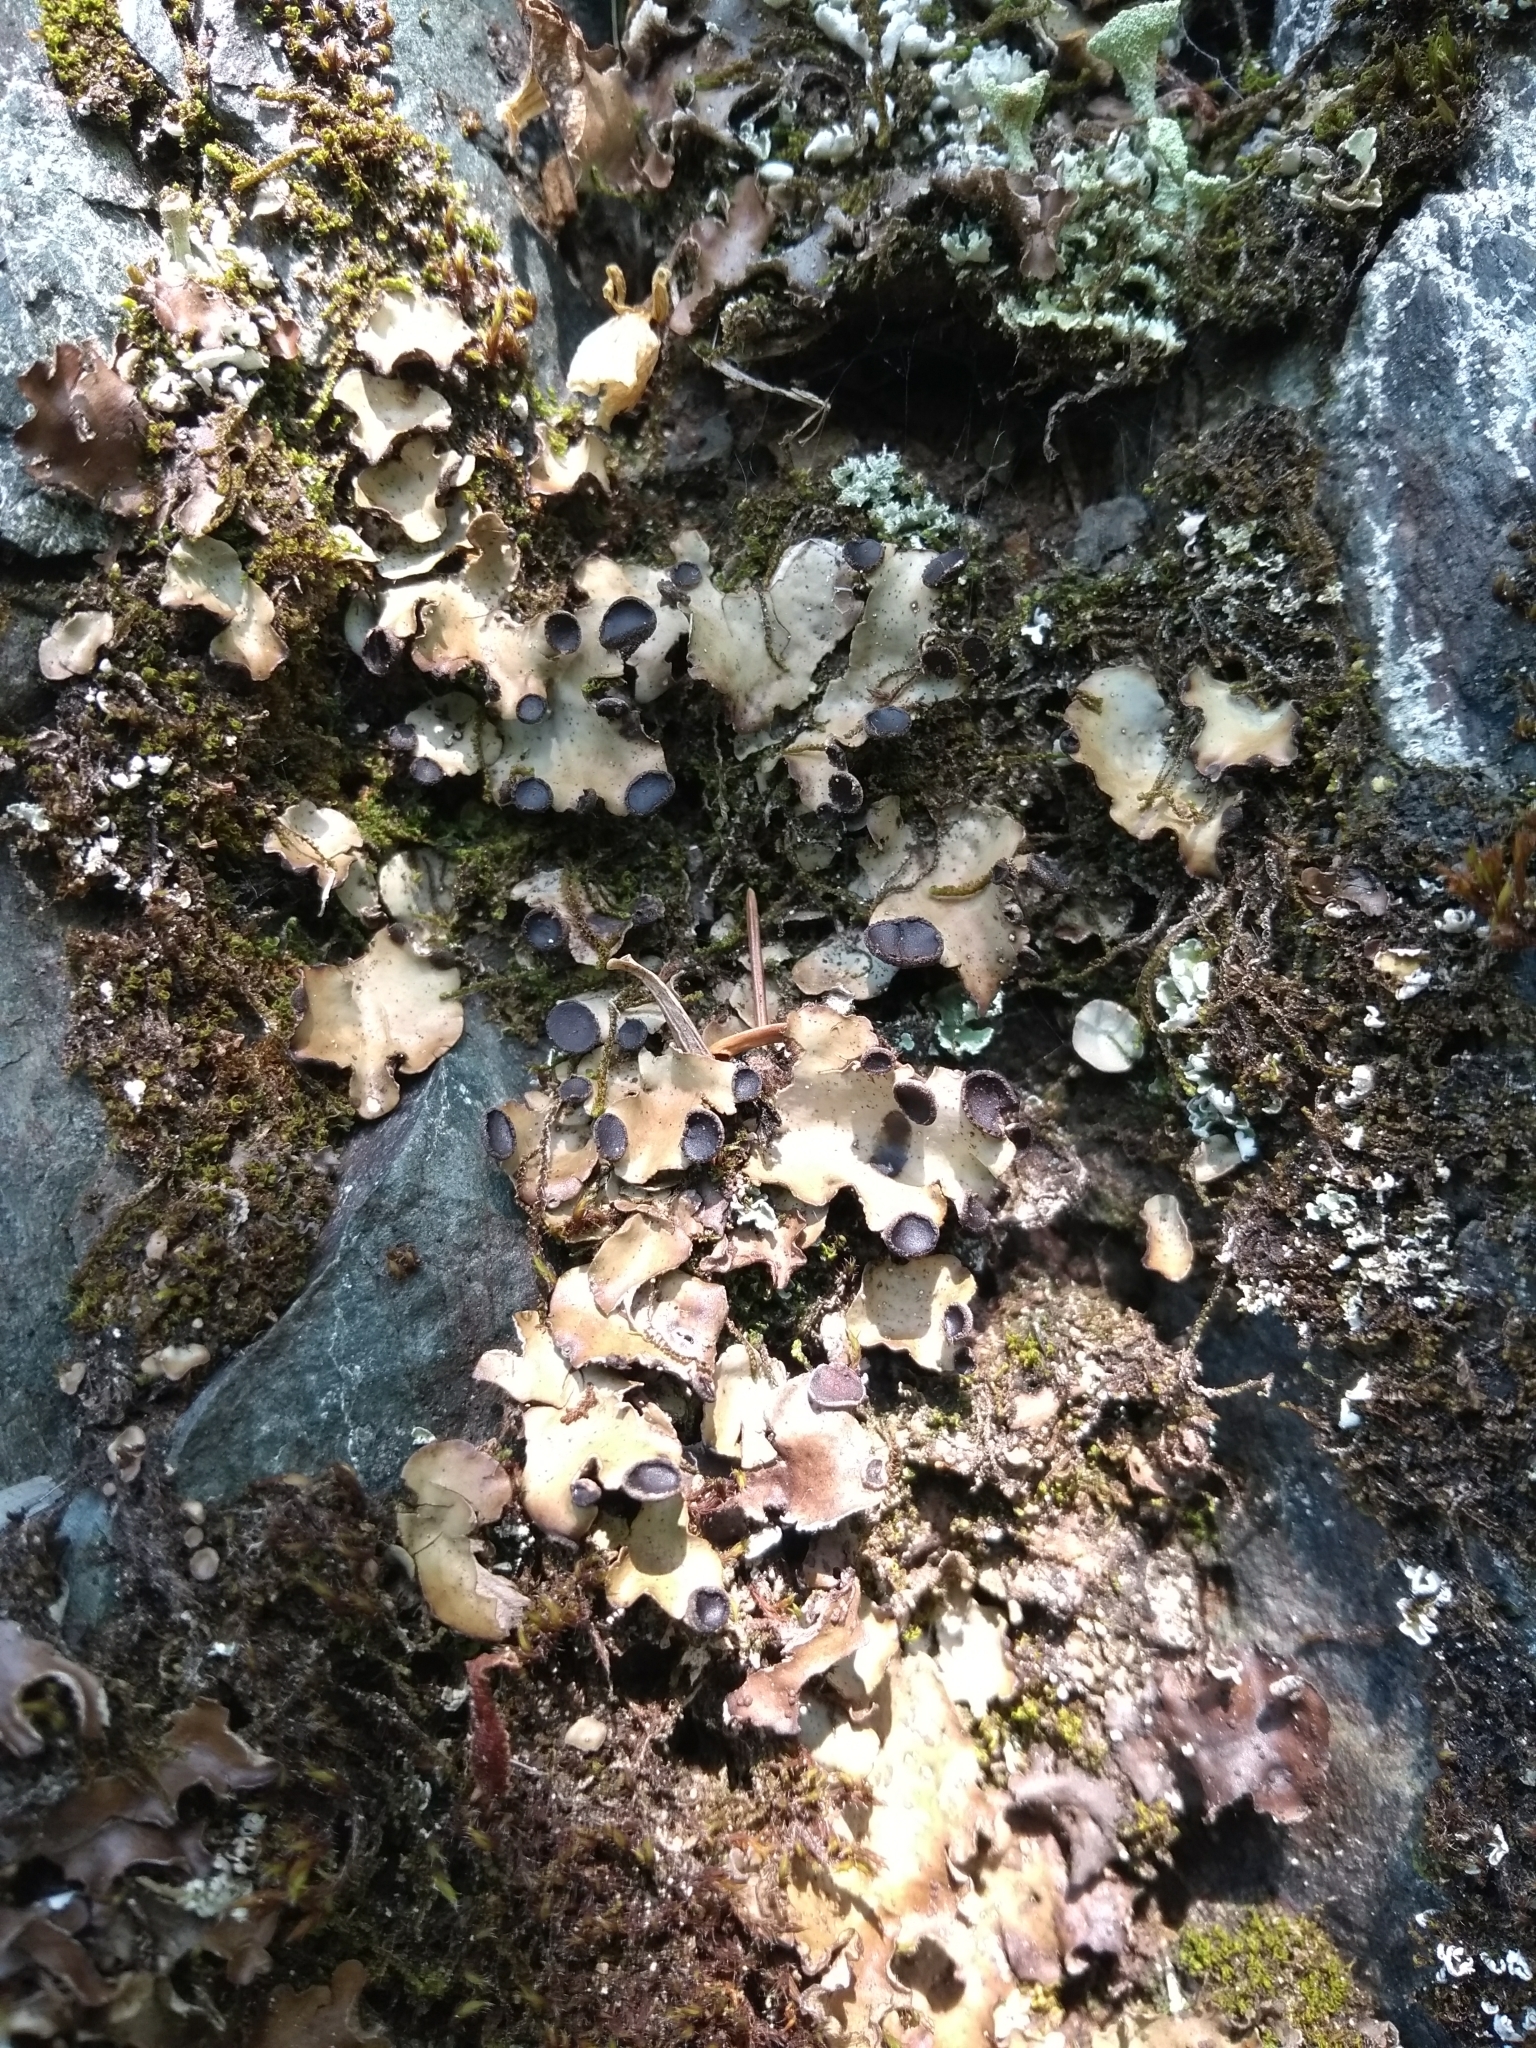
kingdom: Fungi
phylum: Ascomycota
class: Lecanoromycetes
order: Peltigerales
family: Peltigeraceae
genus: Peltigera
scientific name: Peltigera venosa
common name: Pixie gowns lichen
